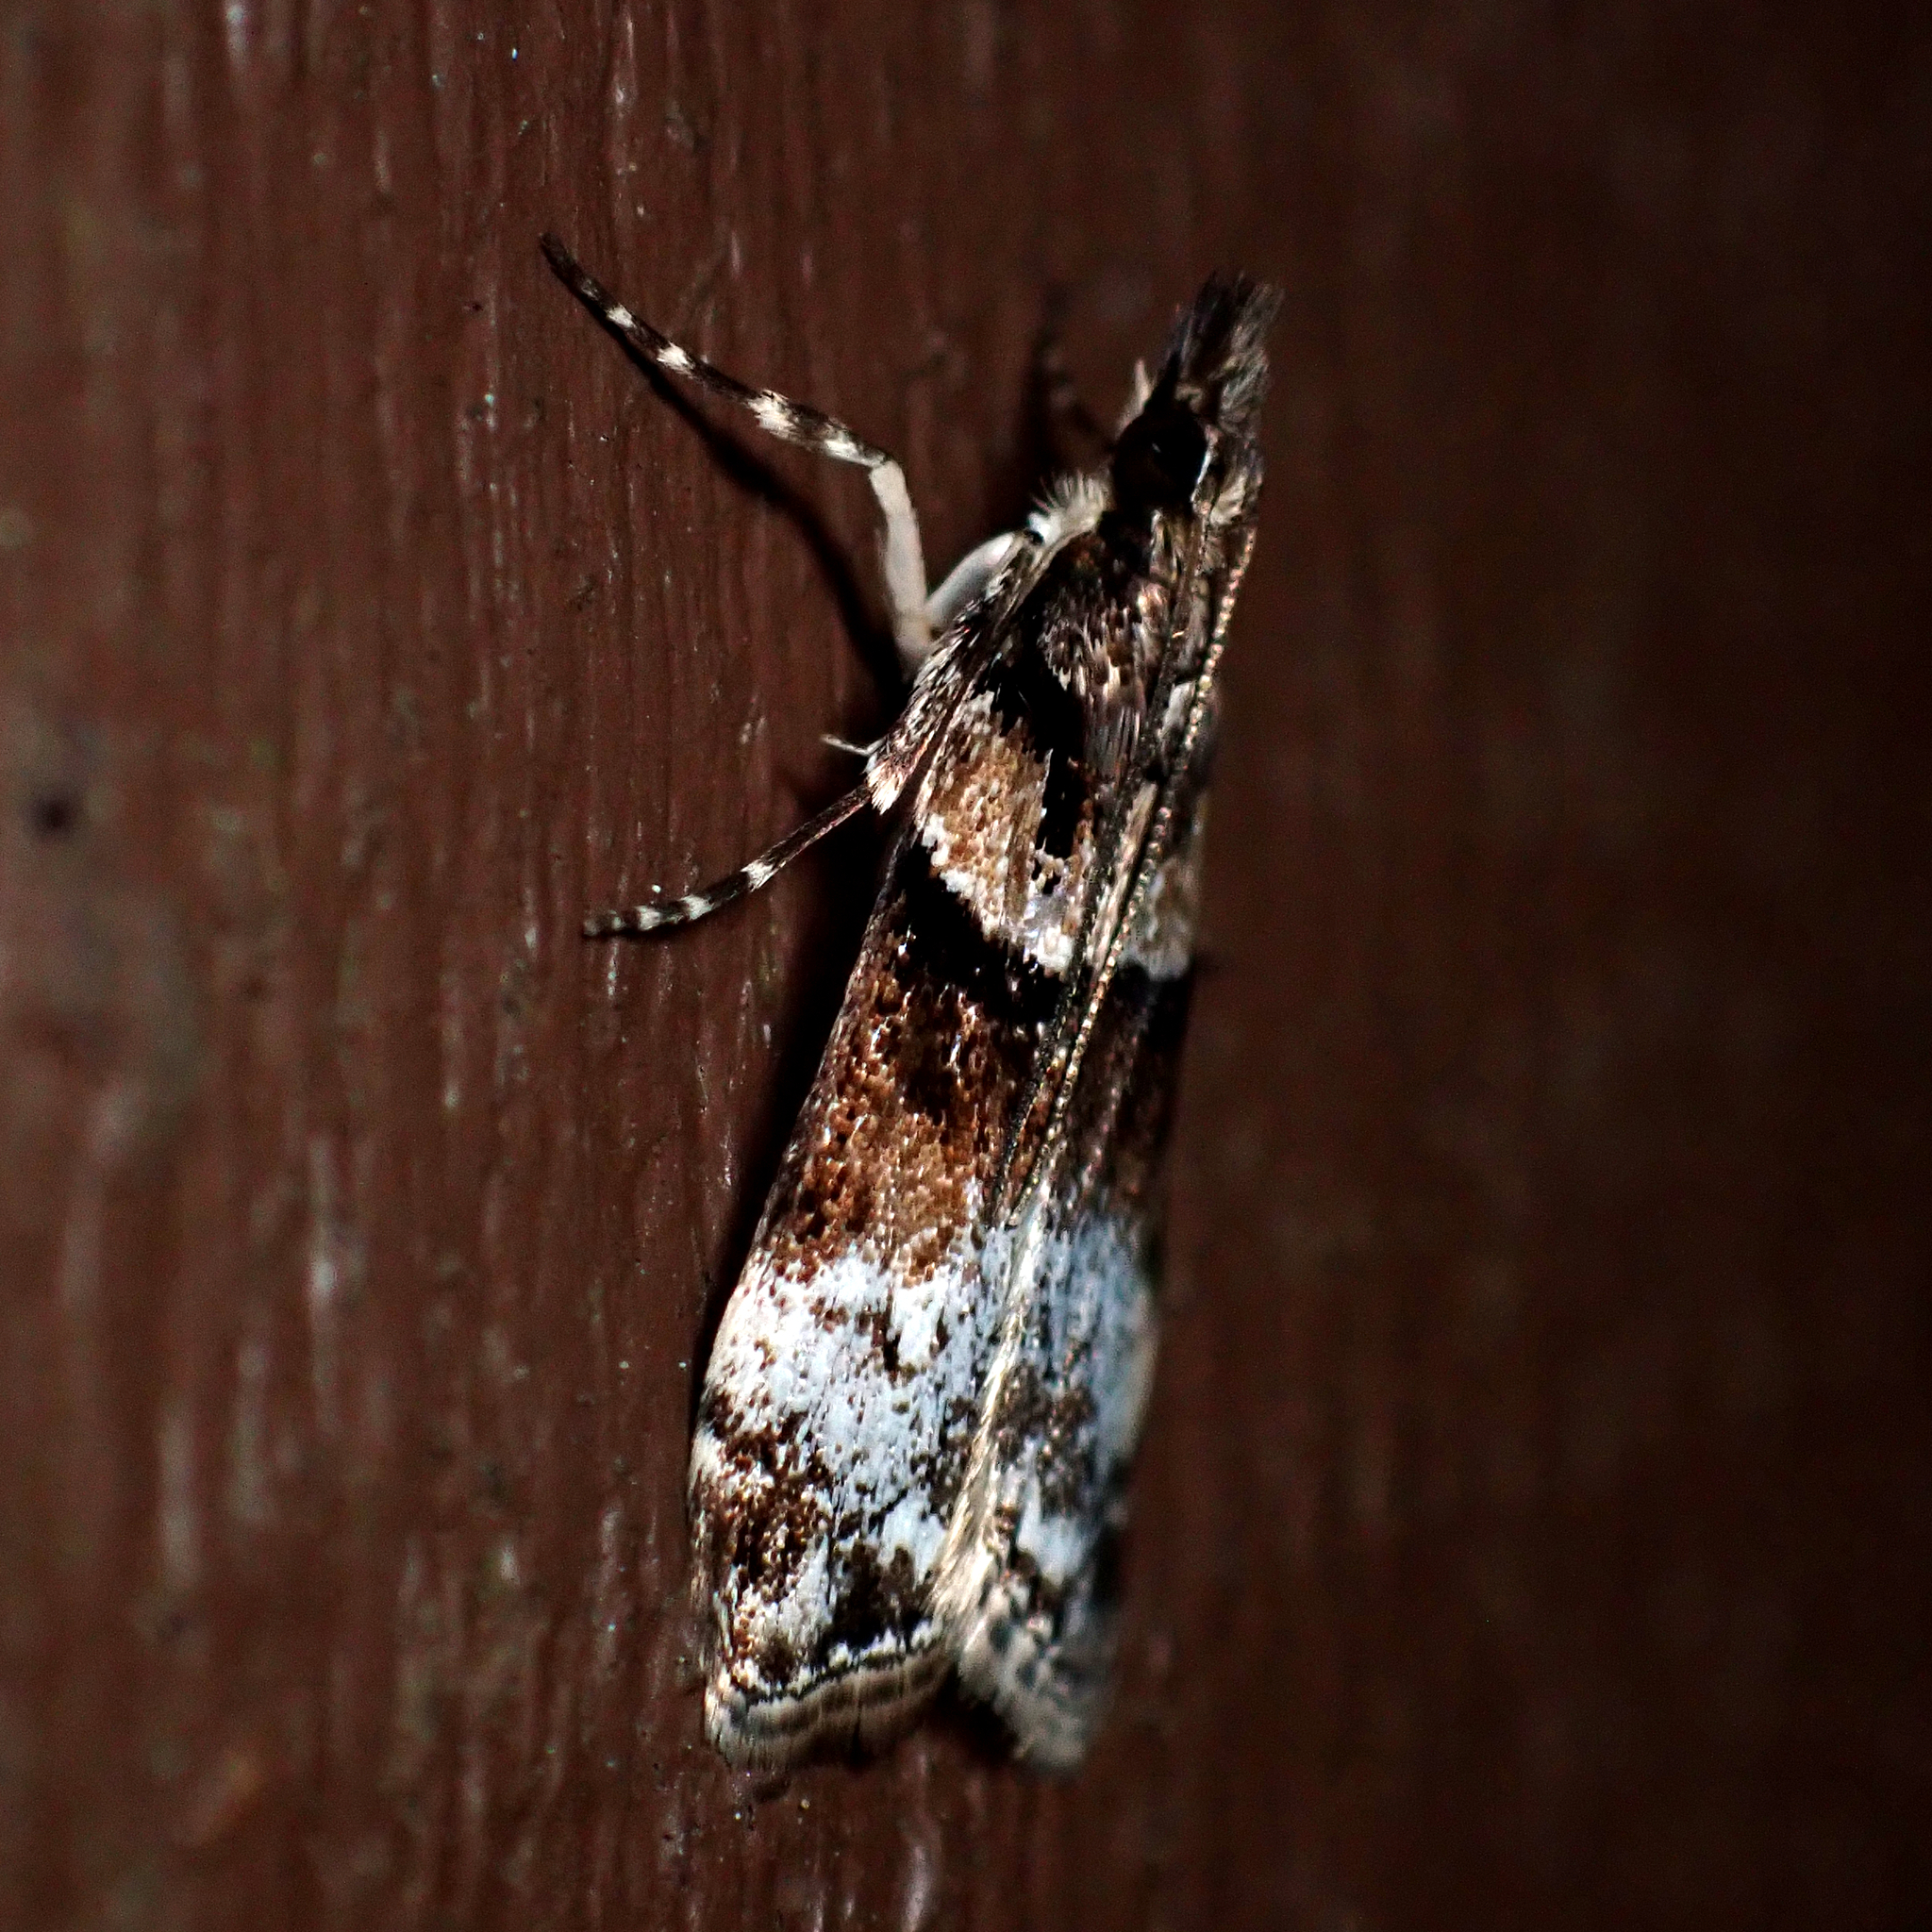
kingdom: Animalia
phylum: Arthropoda
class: Insecta
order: Lepidoptera
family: Crambidae
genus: Eudonia
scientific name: Eudonia colpota
